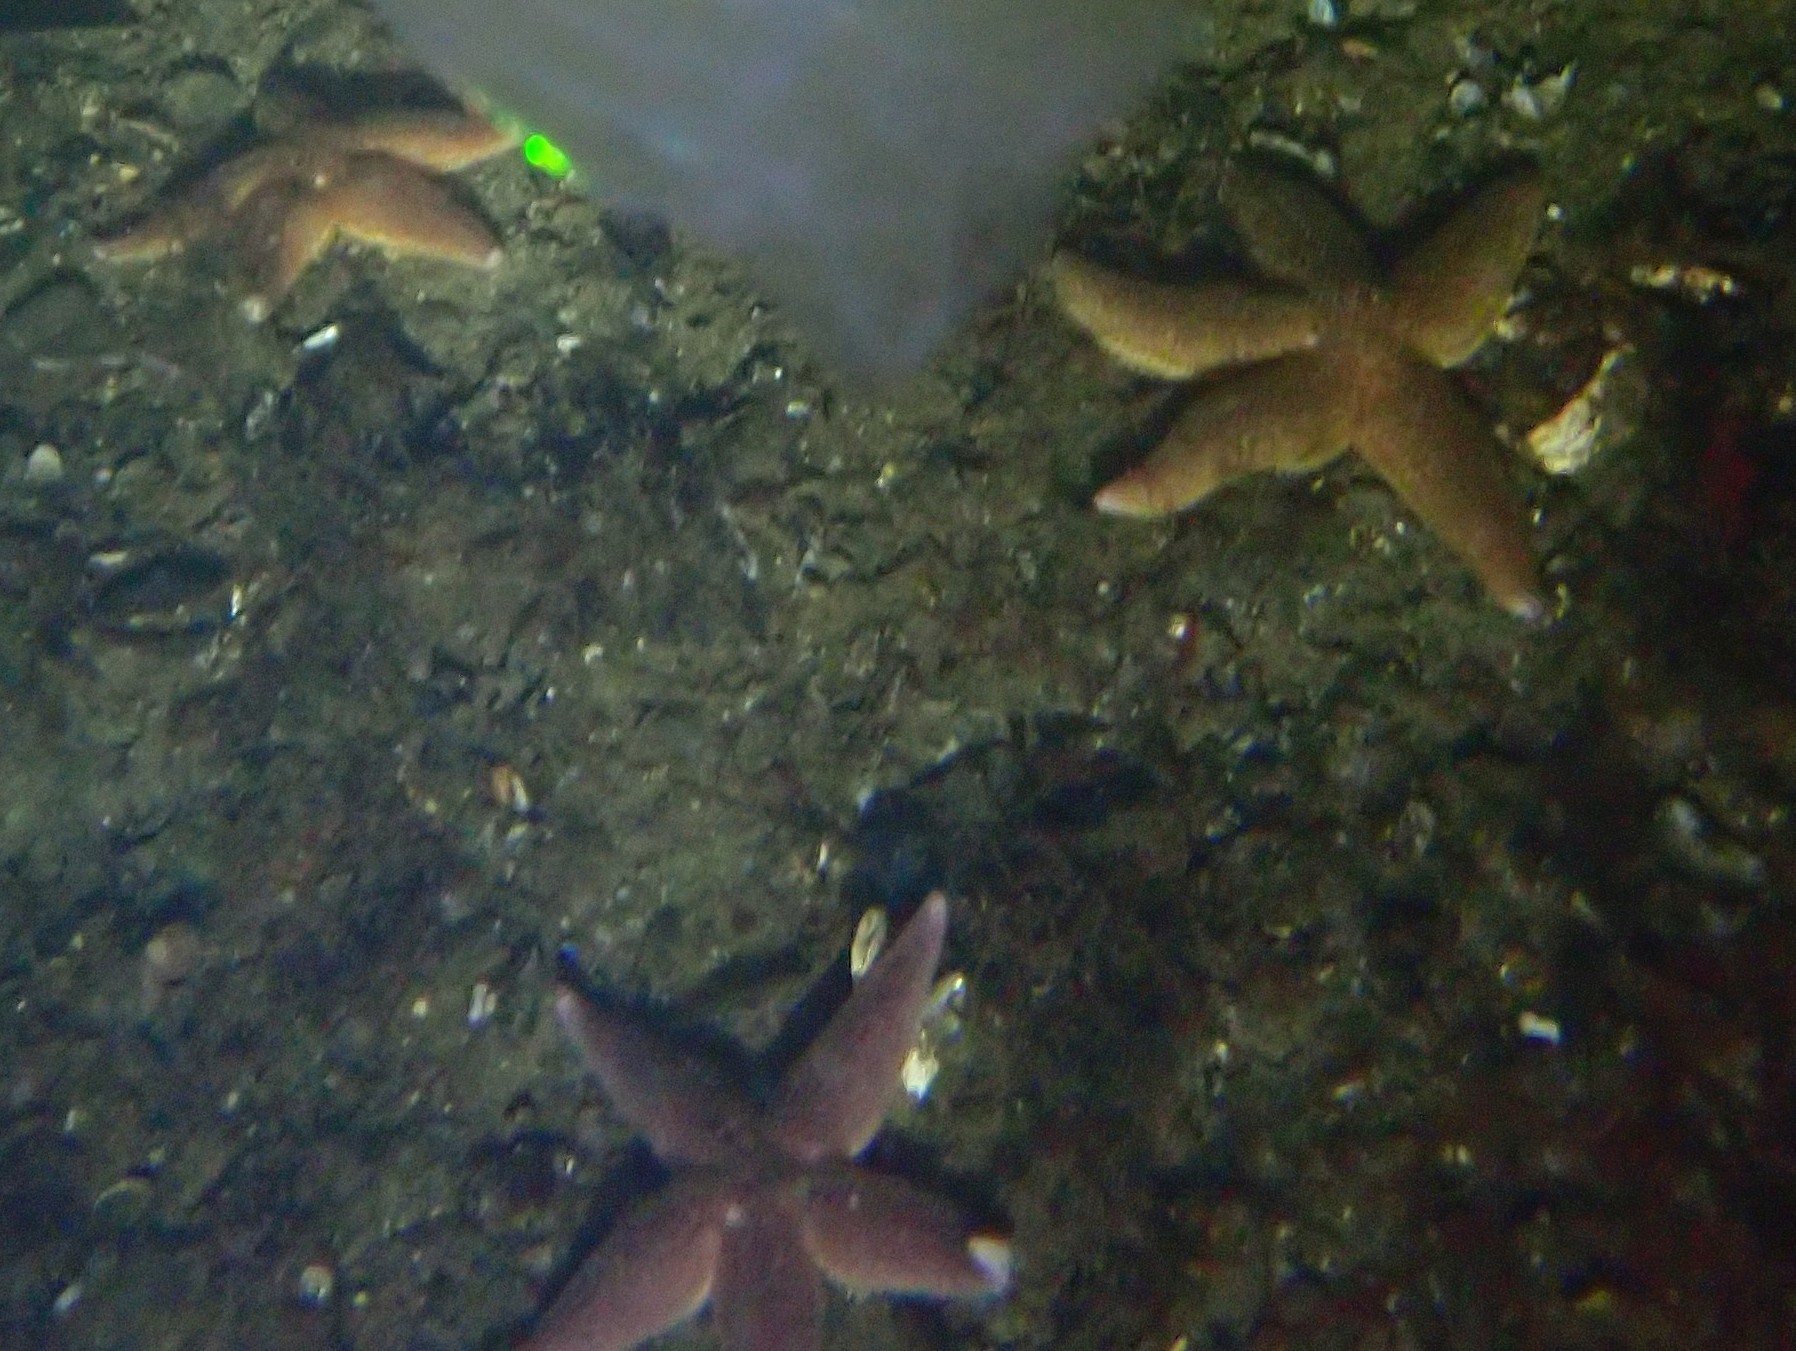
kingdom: Animalia
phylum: Echinodermata
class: Asteroidea
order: Forcipulatida
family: Asteriidae
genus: Asterias
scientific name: Asterias rubens
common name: Common starfish
